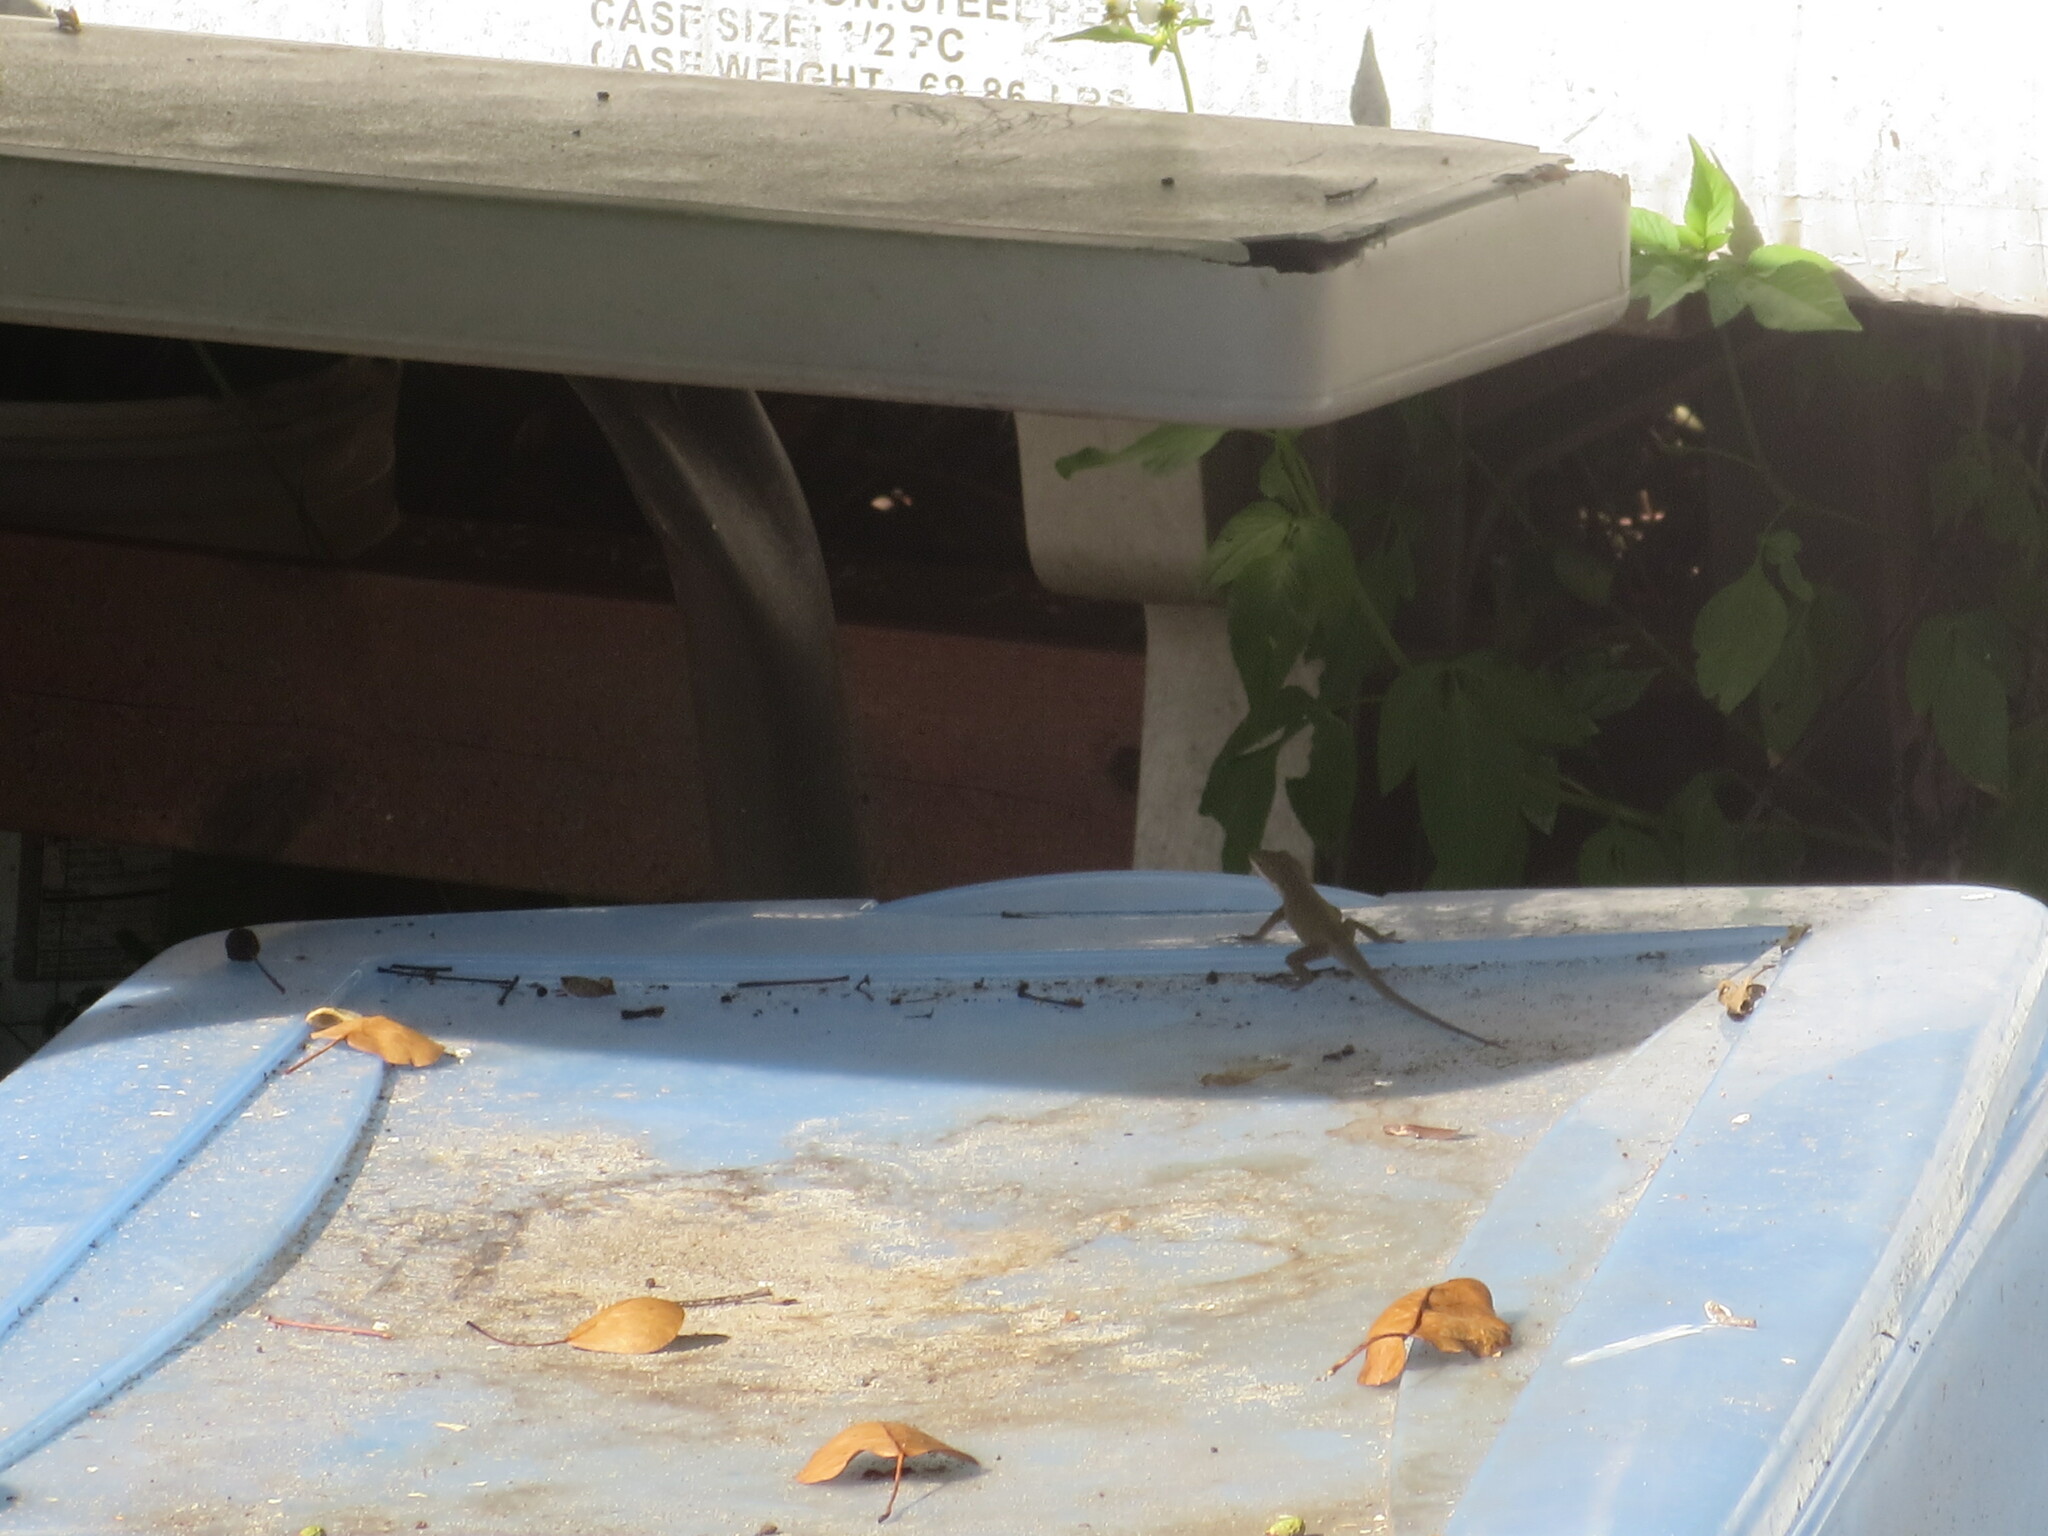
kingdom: Animalia
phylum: Chordata
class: Squamata
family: Dactyloidae
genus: Anolis
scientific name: Anolis carolinensis
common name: Green anole
